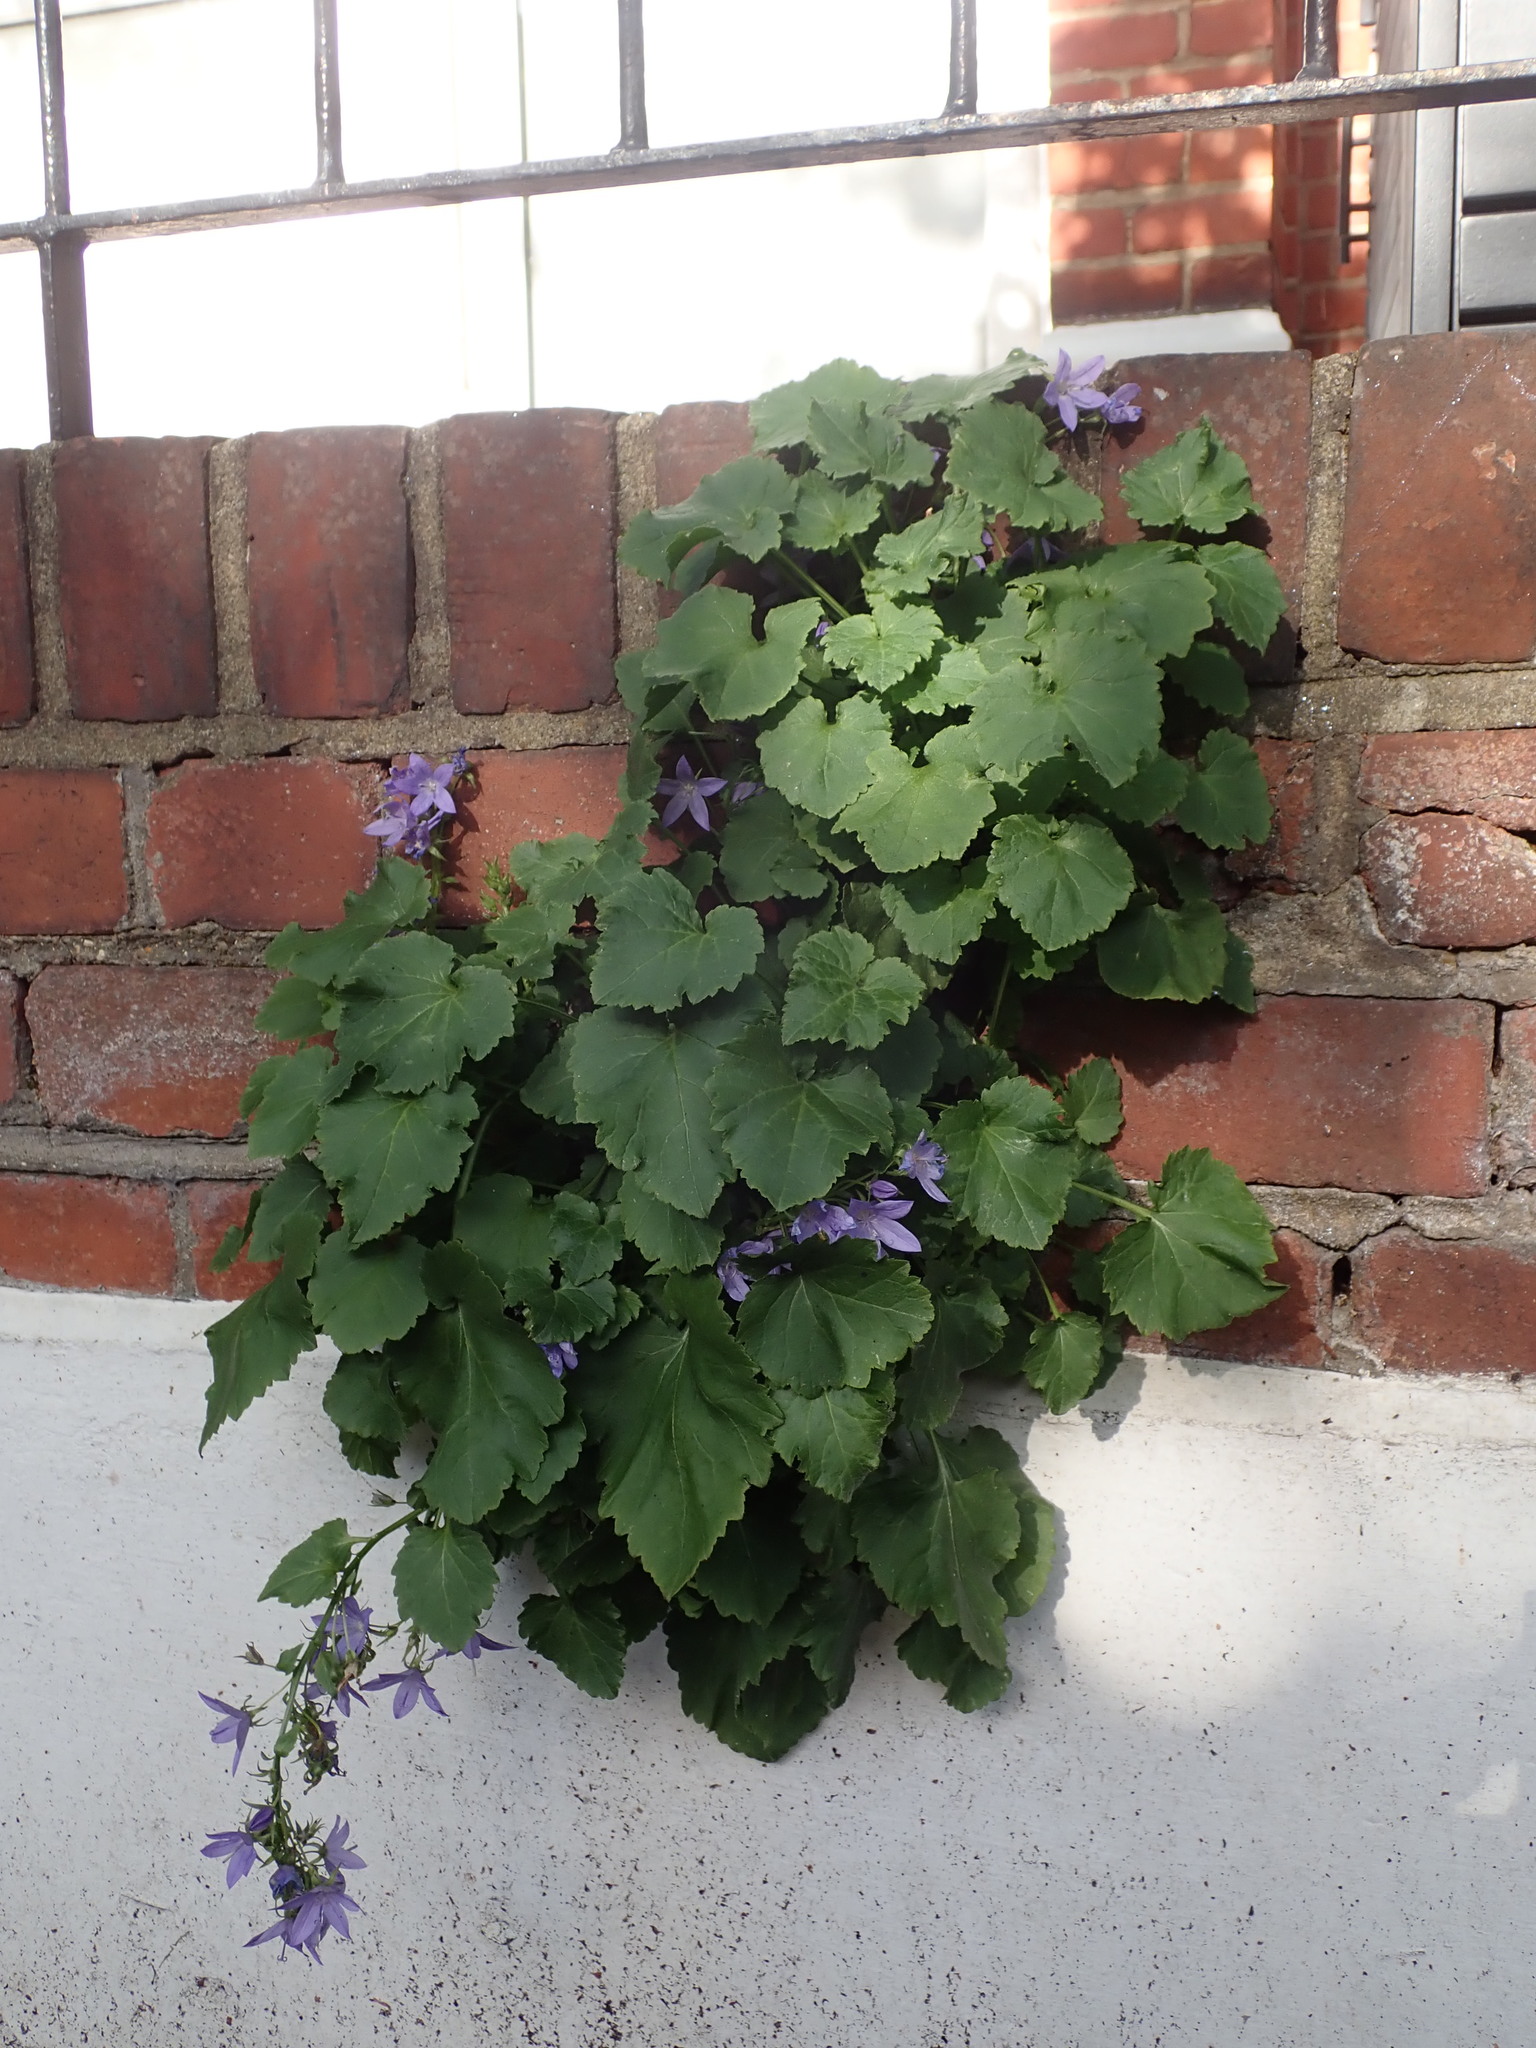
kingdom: Plantae
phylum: Tracheophyta
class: Magnoliopsida
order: Asterales
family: Campanulaceae
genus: Campanula
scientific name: Campanula poscharskyana
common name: Trailing bellflower
